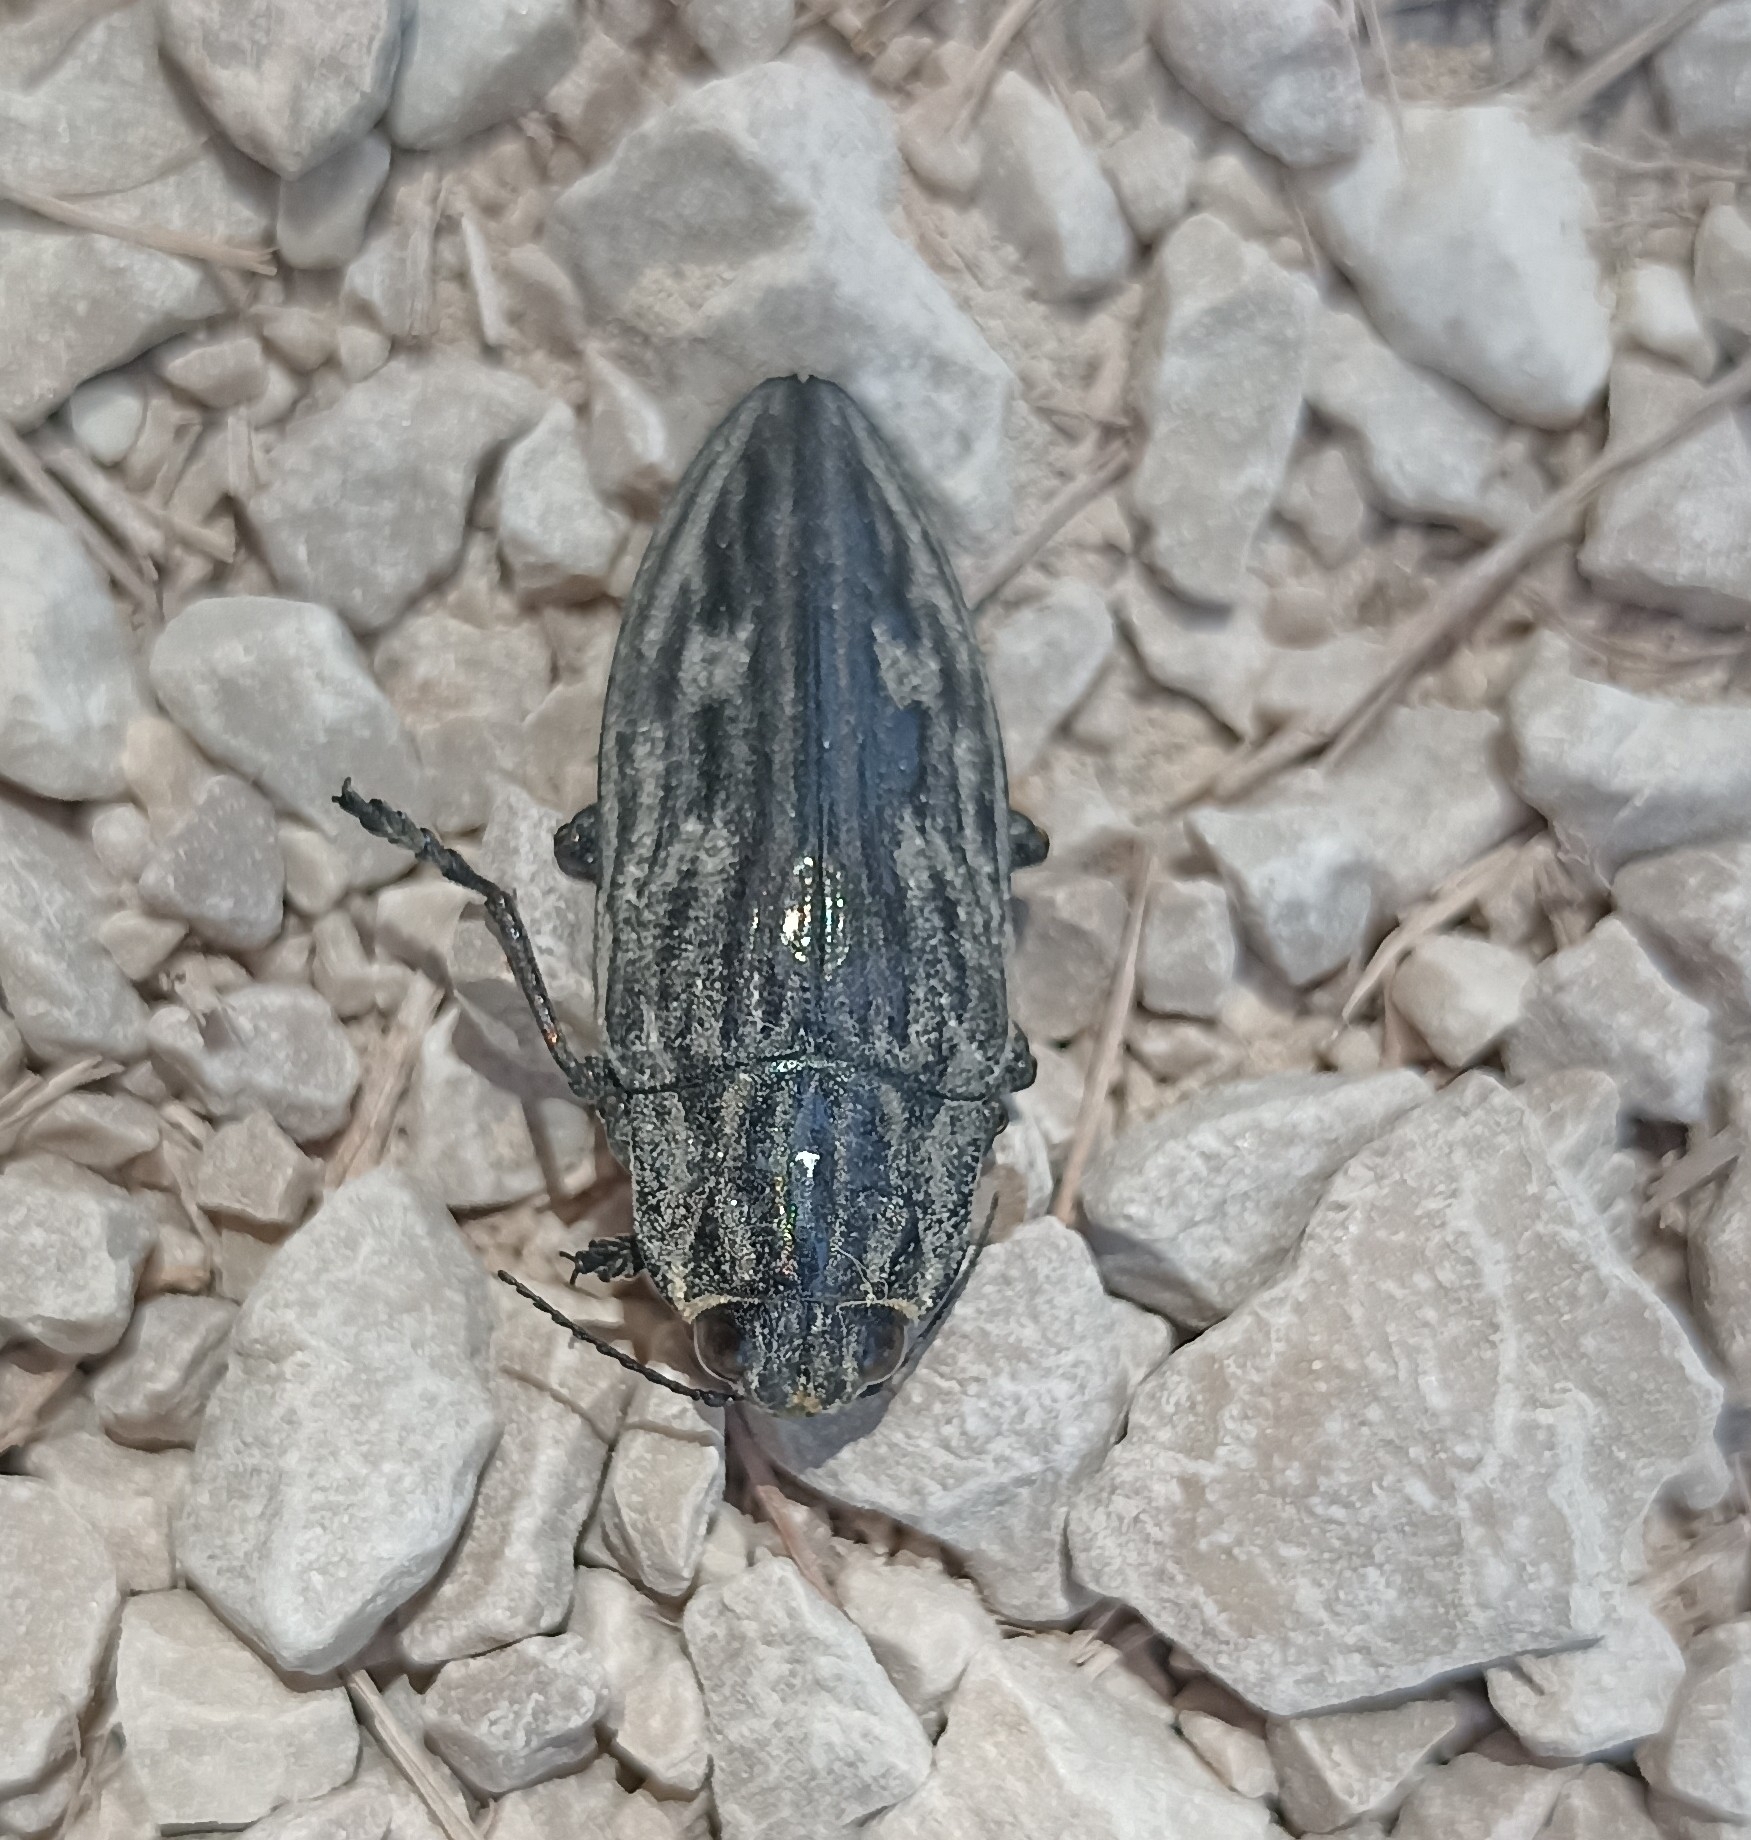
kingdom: Animalia
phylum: Arthropoda
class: Insecta
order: Coleoptera
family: Buprestidae
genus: Chalcophora
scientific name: Chalcophora intermedia
